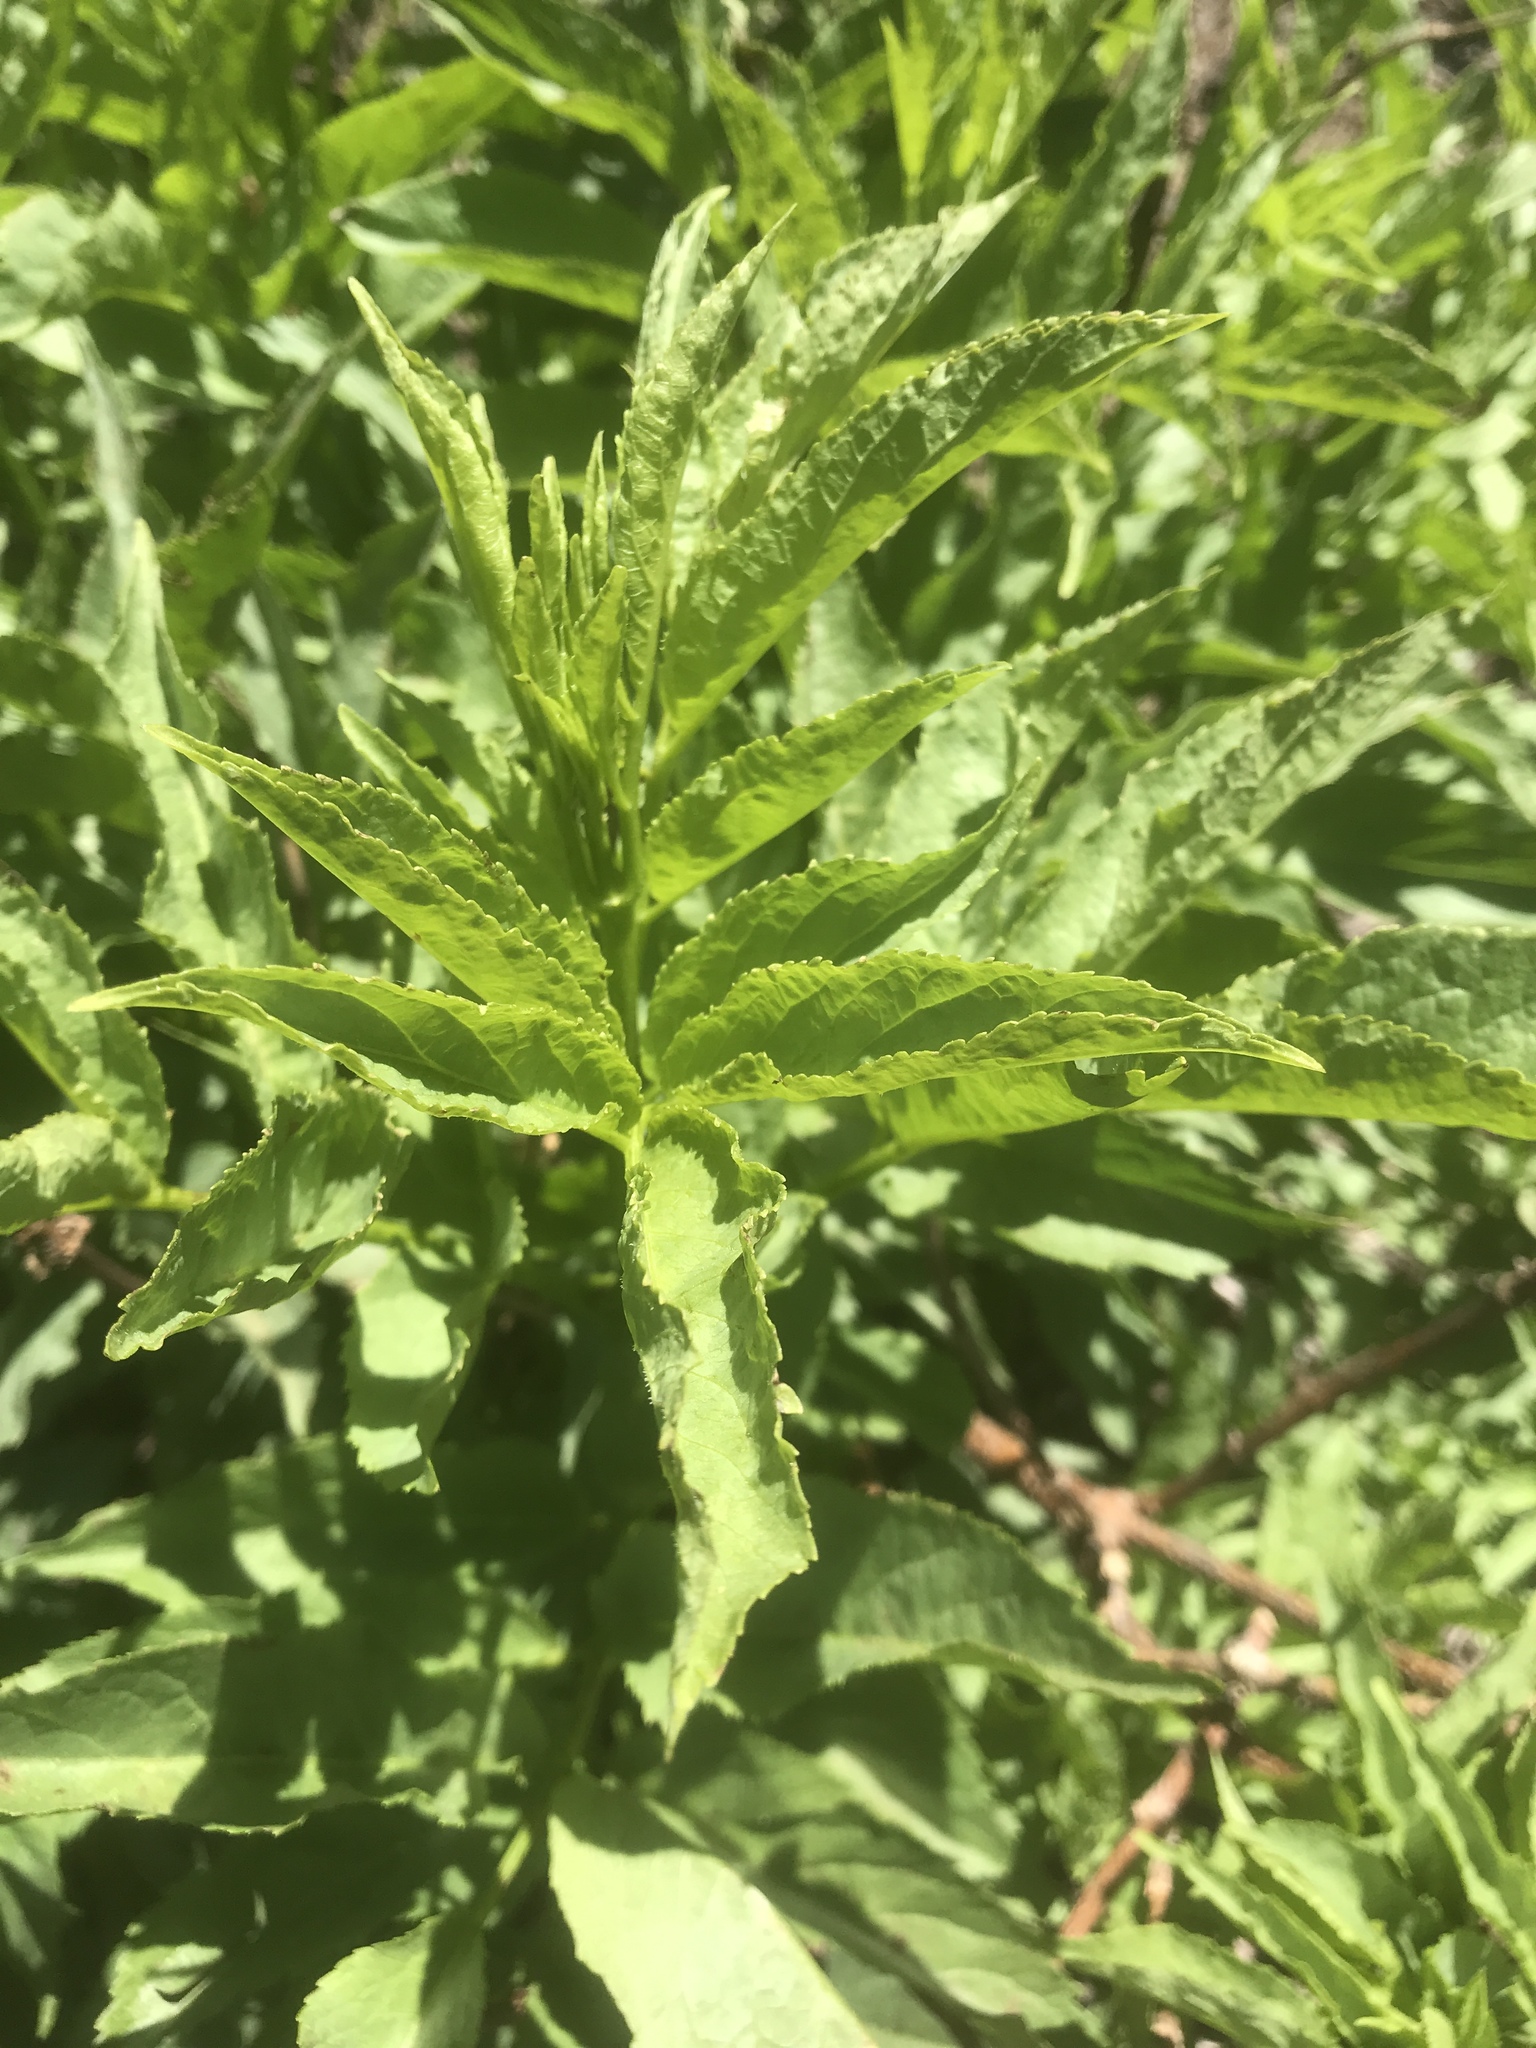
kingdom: Plantae
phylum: Tracheophyta
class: Magnoliopsida
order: Dipsacales
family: Viburnaceae
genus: Sambucus
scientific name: Sambucus racemosa
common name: Red-berried elder
